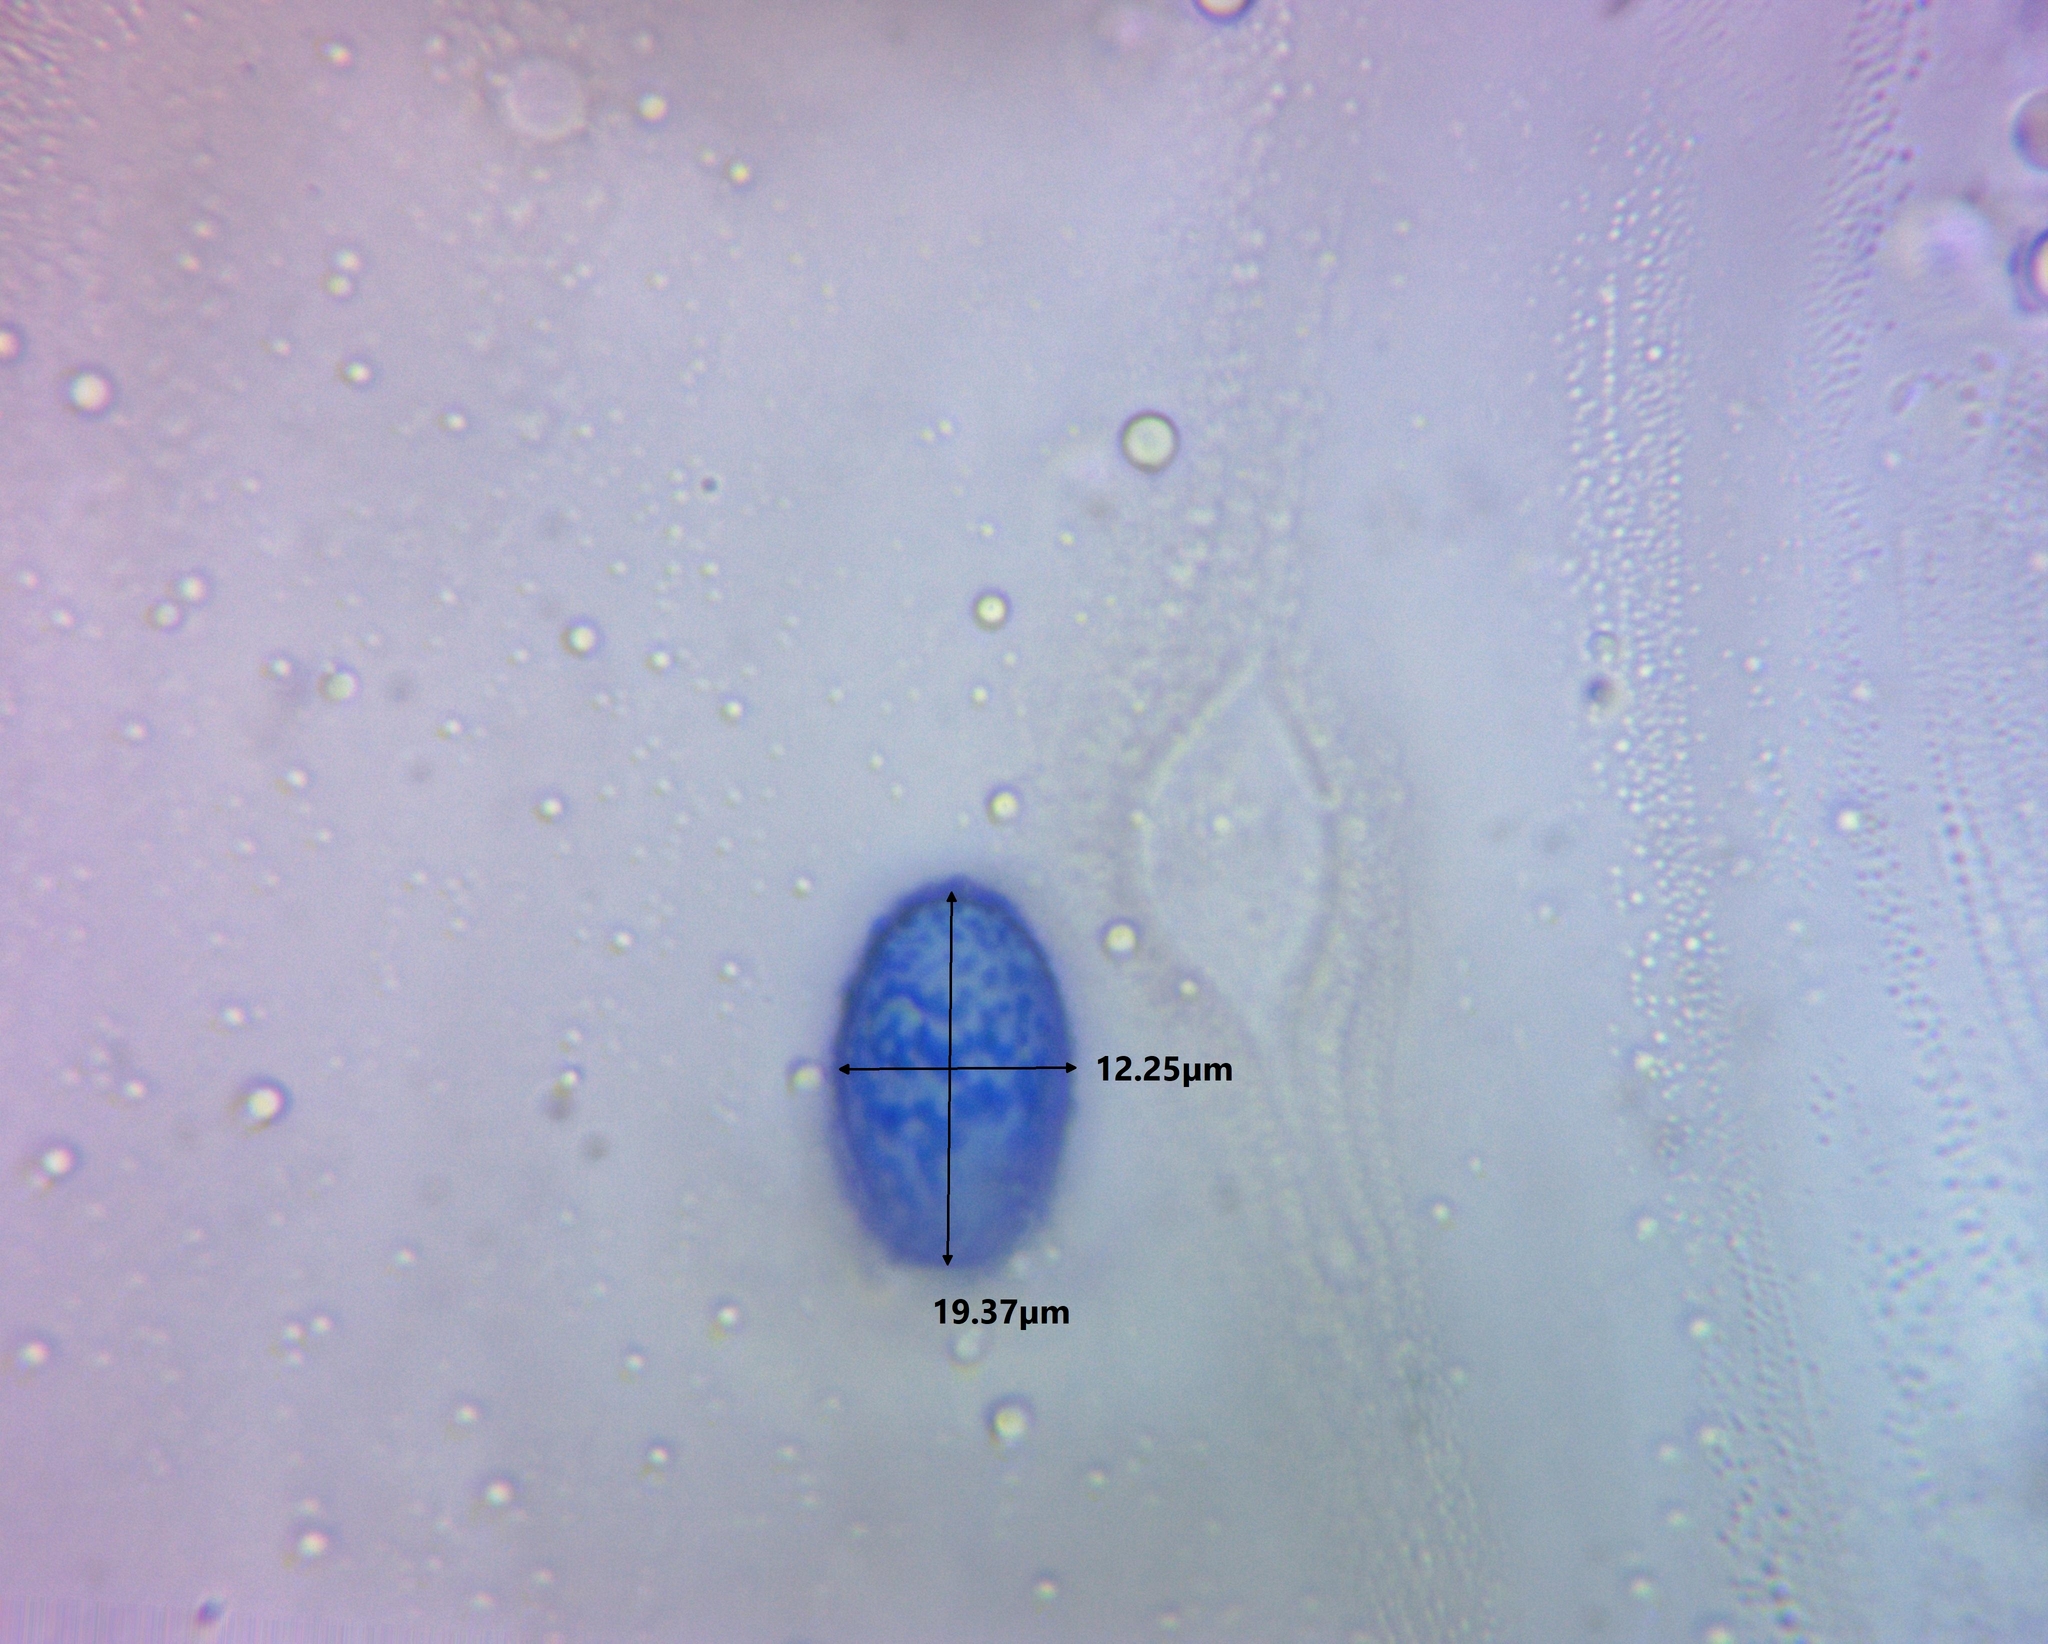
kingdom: Fungi
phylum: Ascomycota
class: Pezizomycetes
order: Pezizales
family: Pyronemataceae
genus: Scutellinia
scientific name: Scutellinia vitreola
